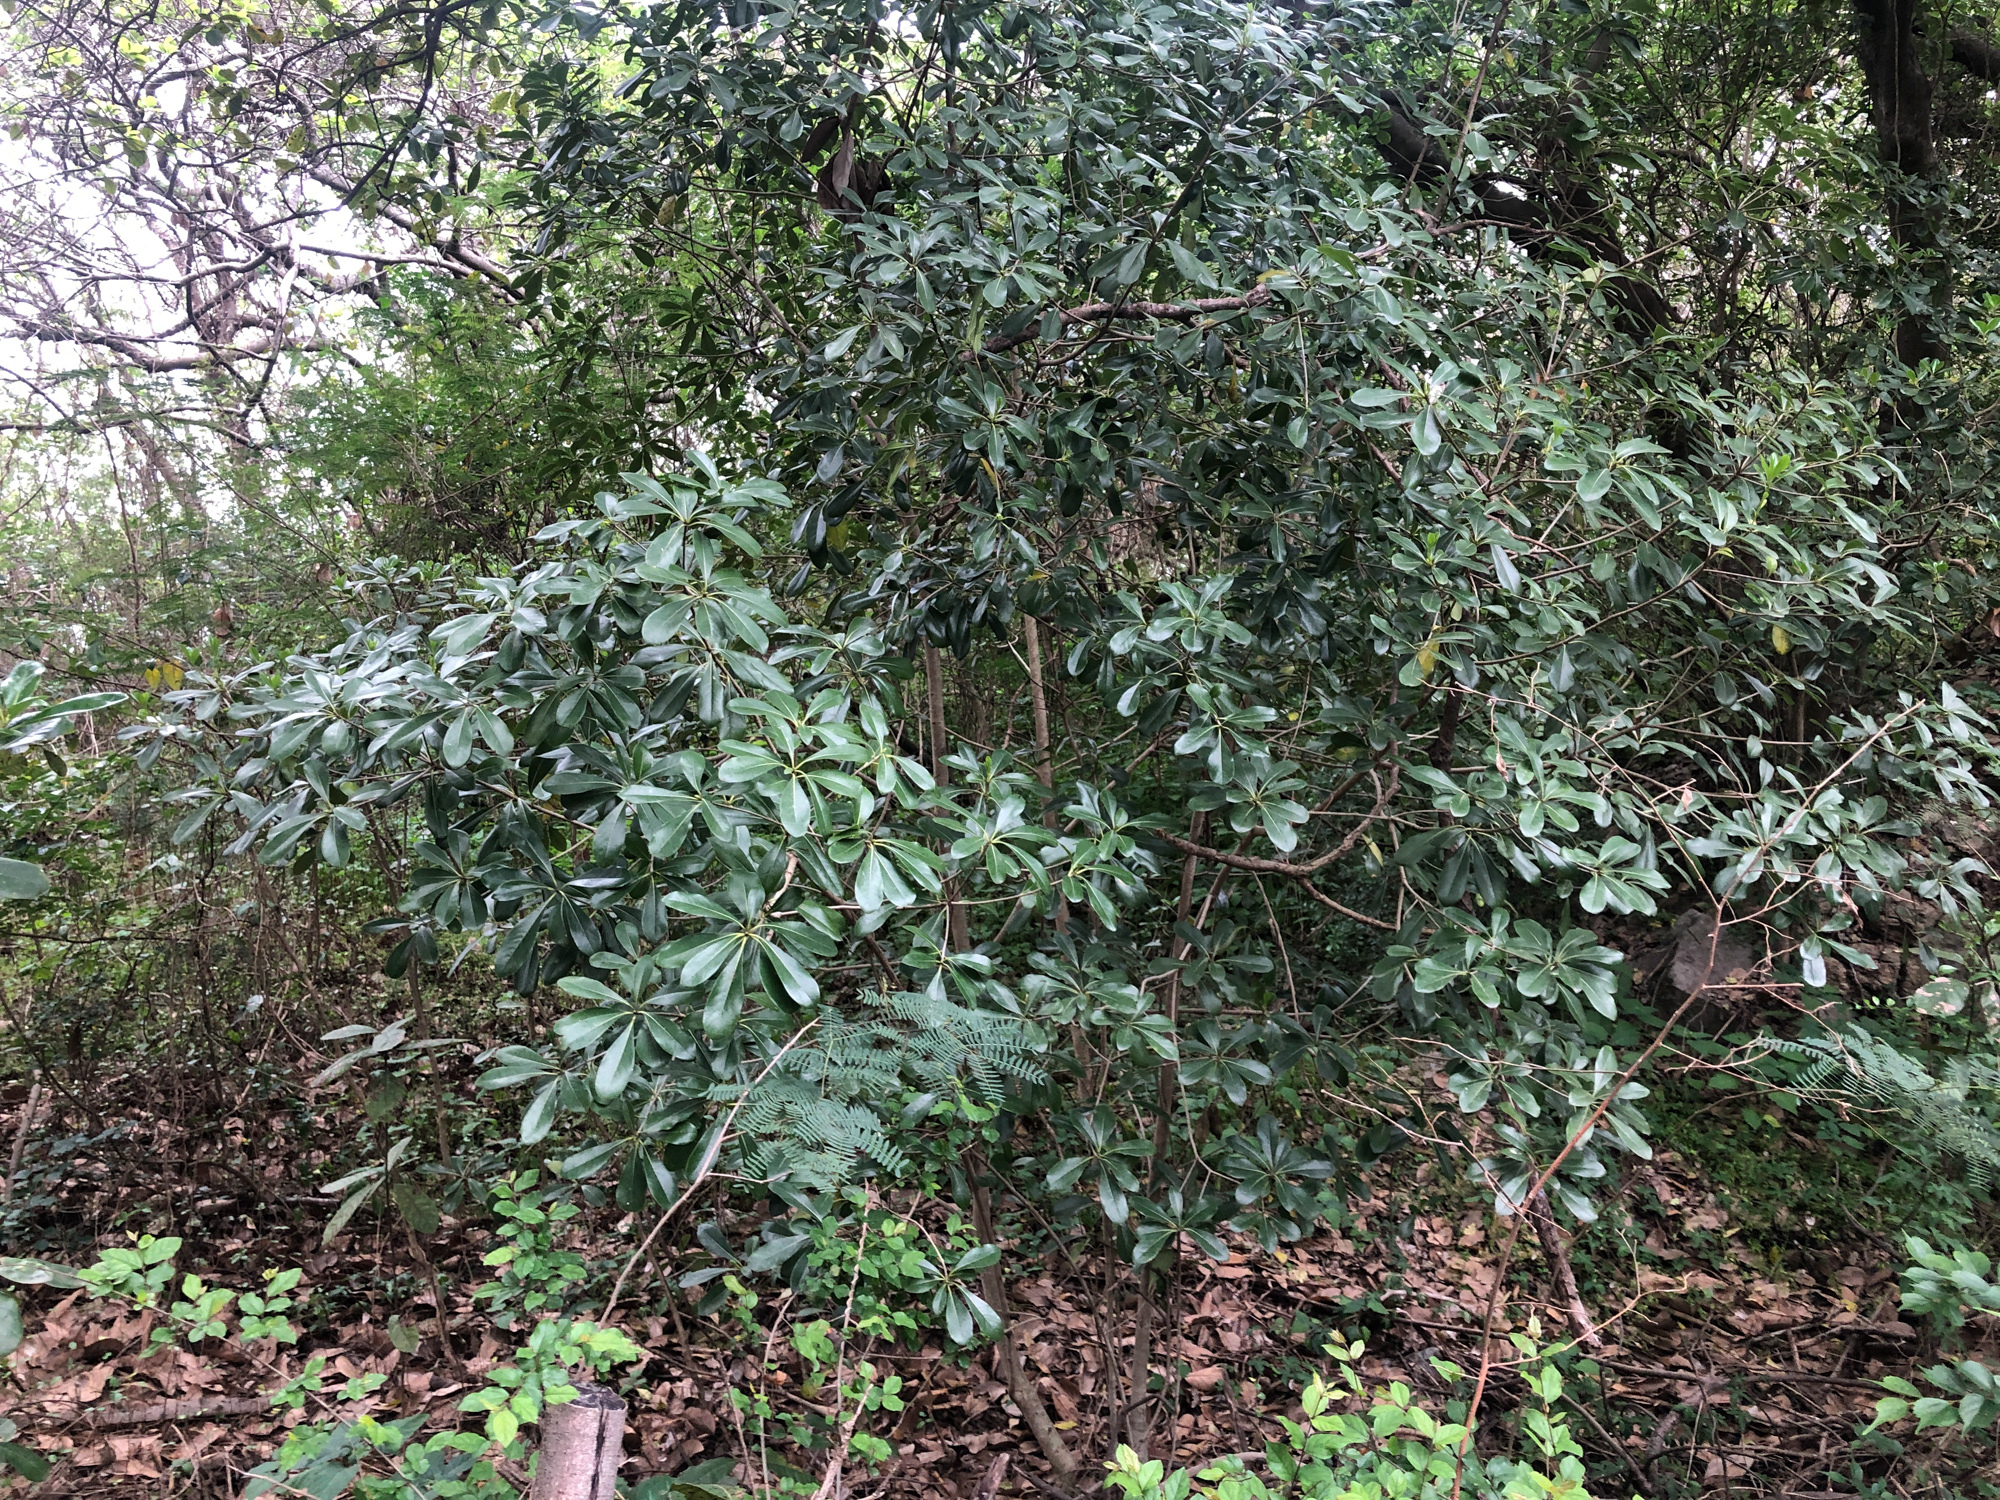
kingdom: Plantae
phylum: Tracheophyta
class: Magnoliopsida
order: Apiales
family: Pittosporaceae
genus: Pittosporum
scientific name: Pittosporum tobira
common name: Japanese cheesewood
